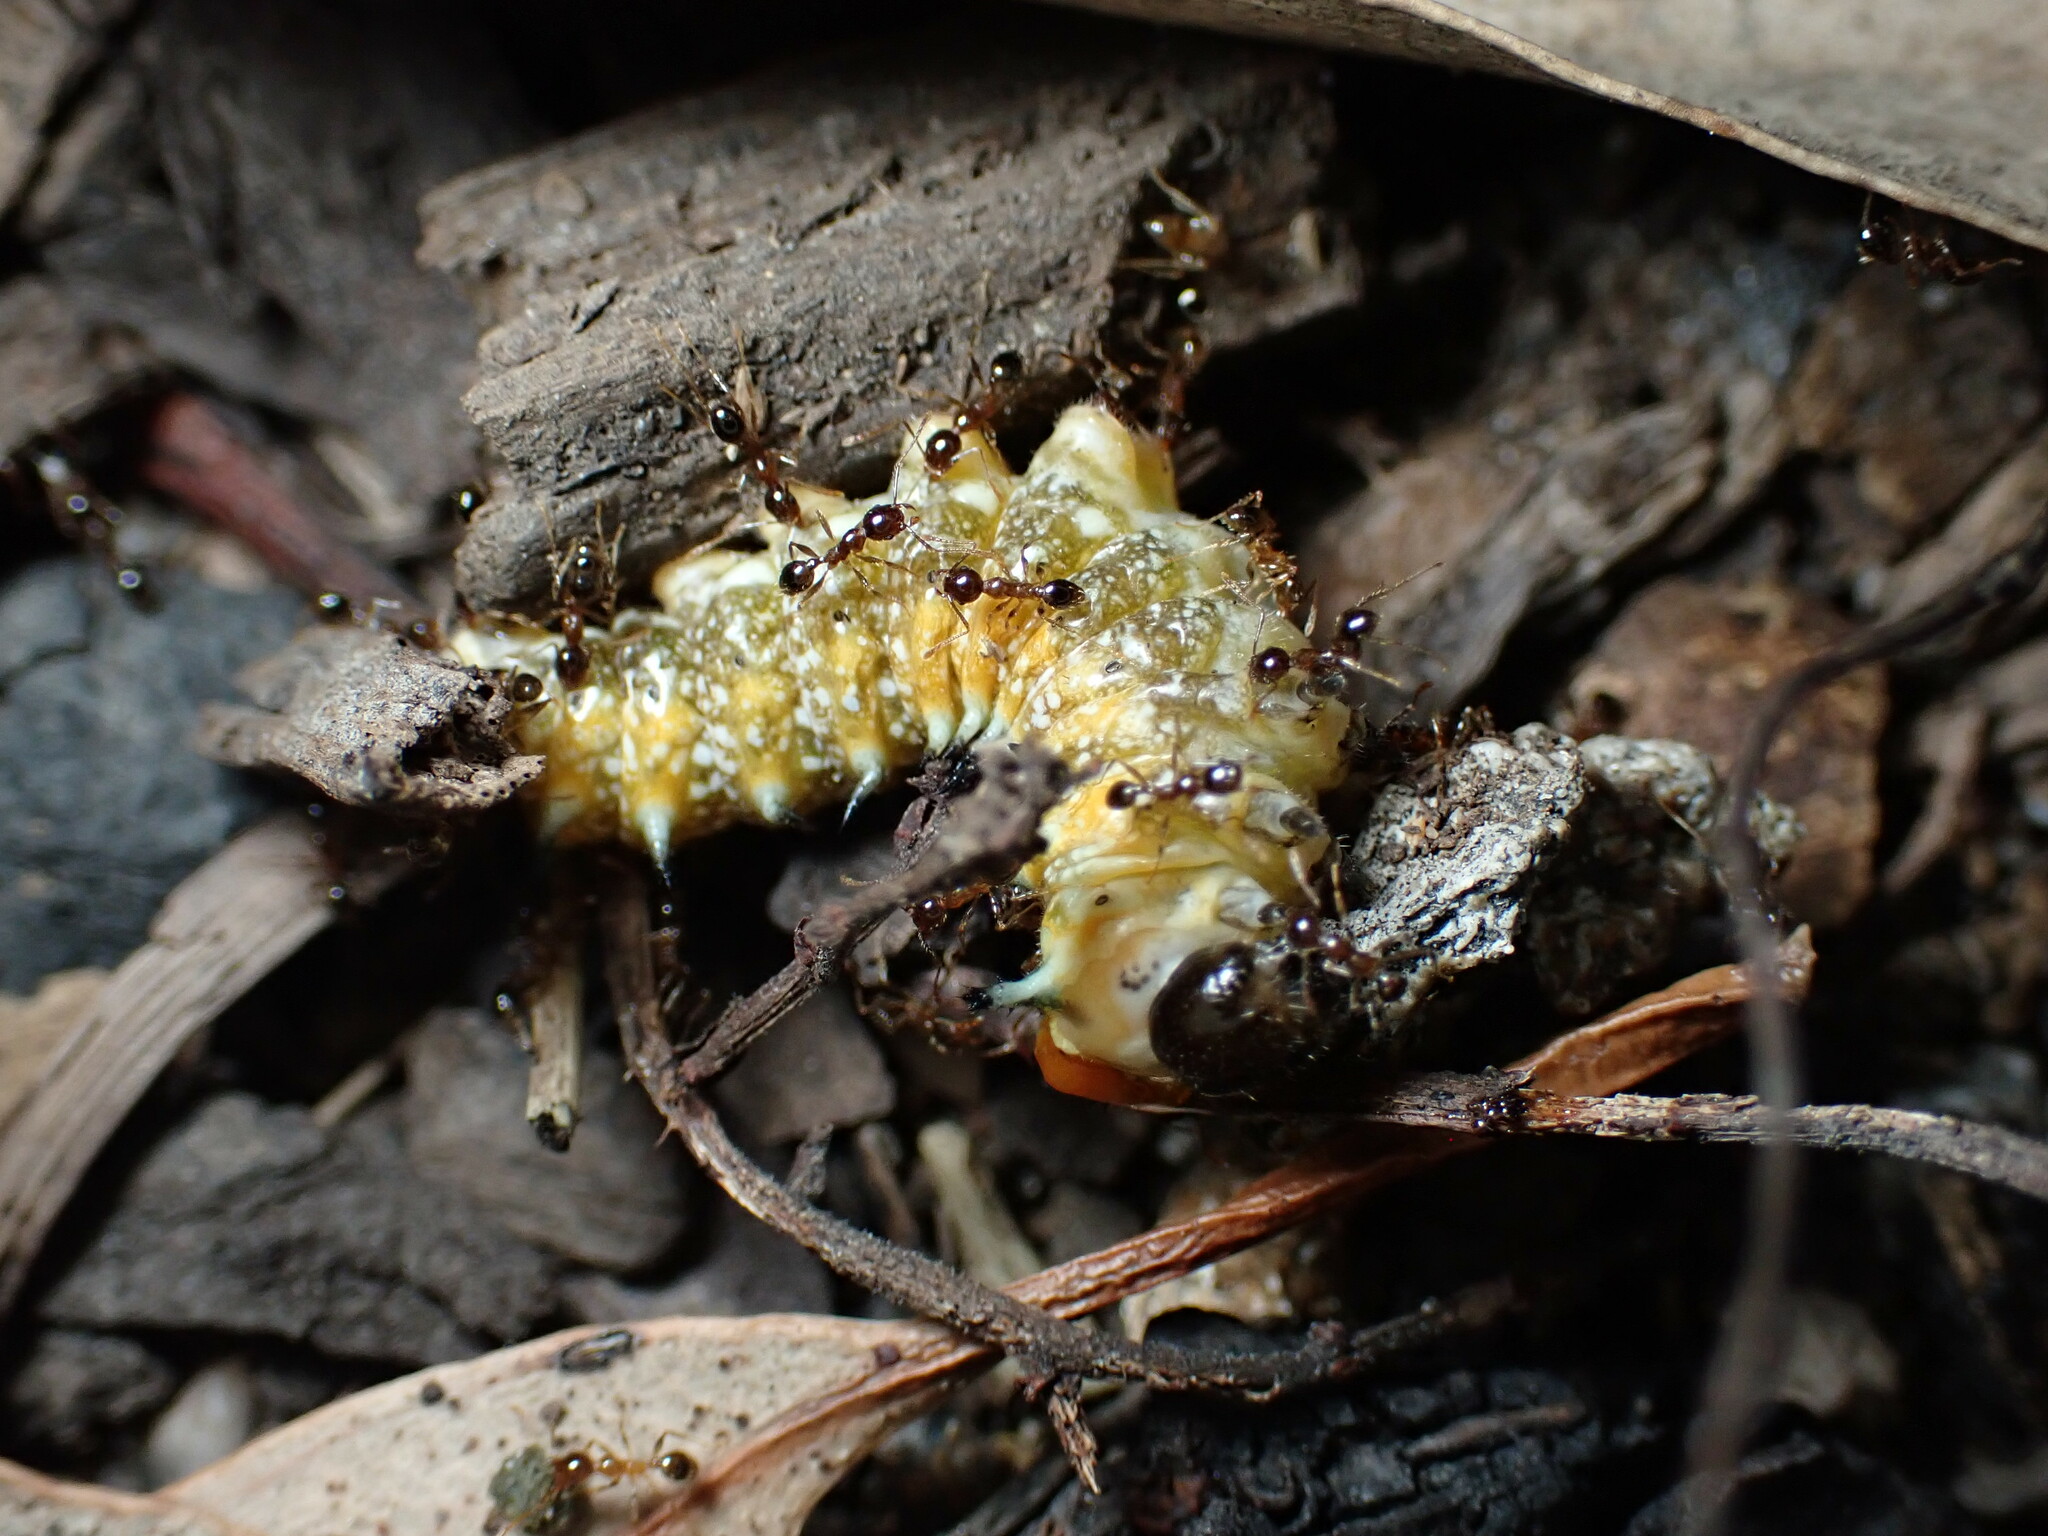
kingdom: Animalia
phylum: Arthropoda
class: Insecta
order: Hymenoptera
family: Formicidae
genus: Pheidole
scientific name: Pheidole megacephala
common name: Bigheaded ant
